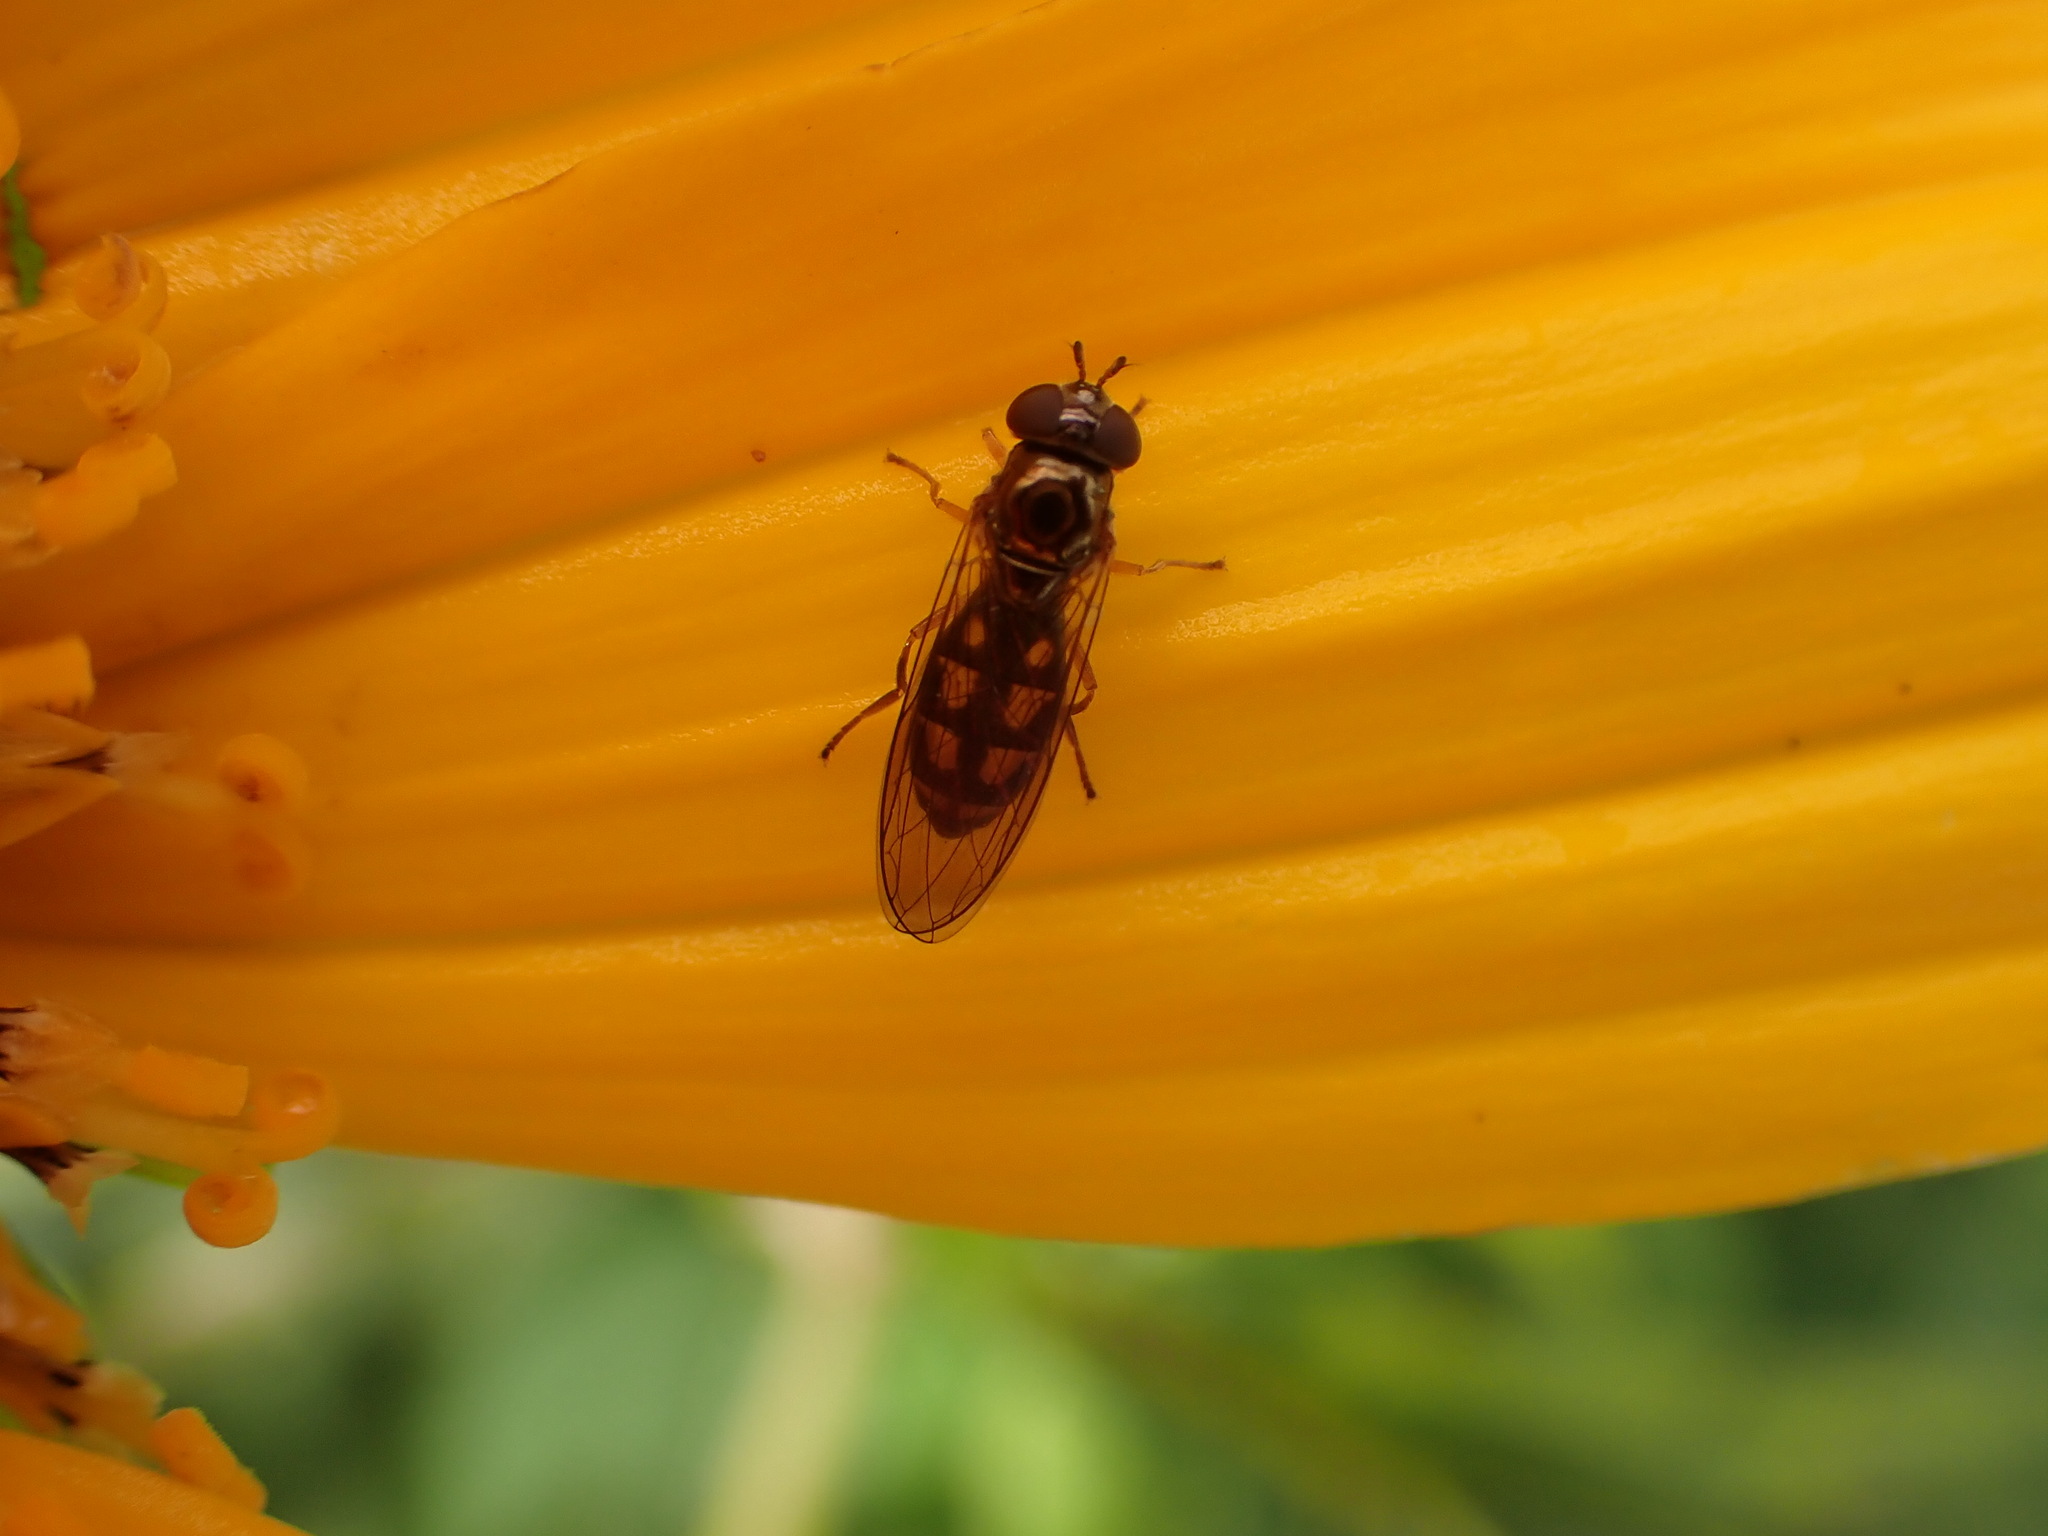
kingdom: Animalia
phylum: Arthropoda
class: Insecta
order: Diptera
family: Syrphidae
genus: Melanostoma
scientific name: Melanostoma fasciatum
